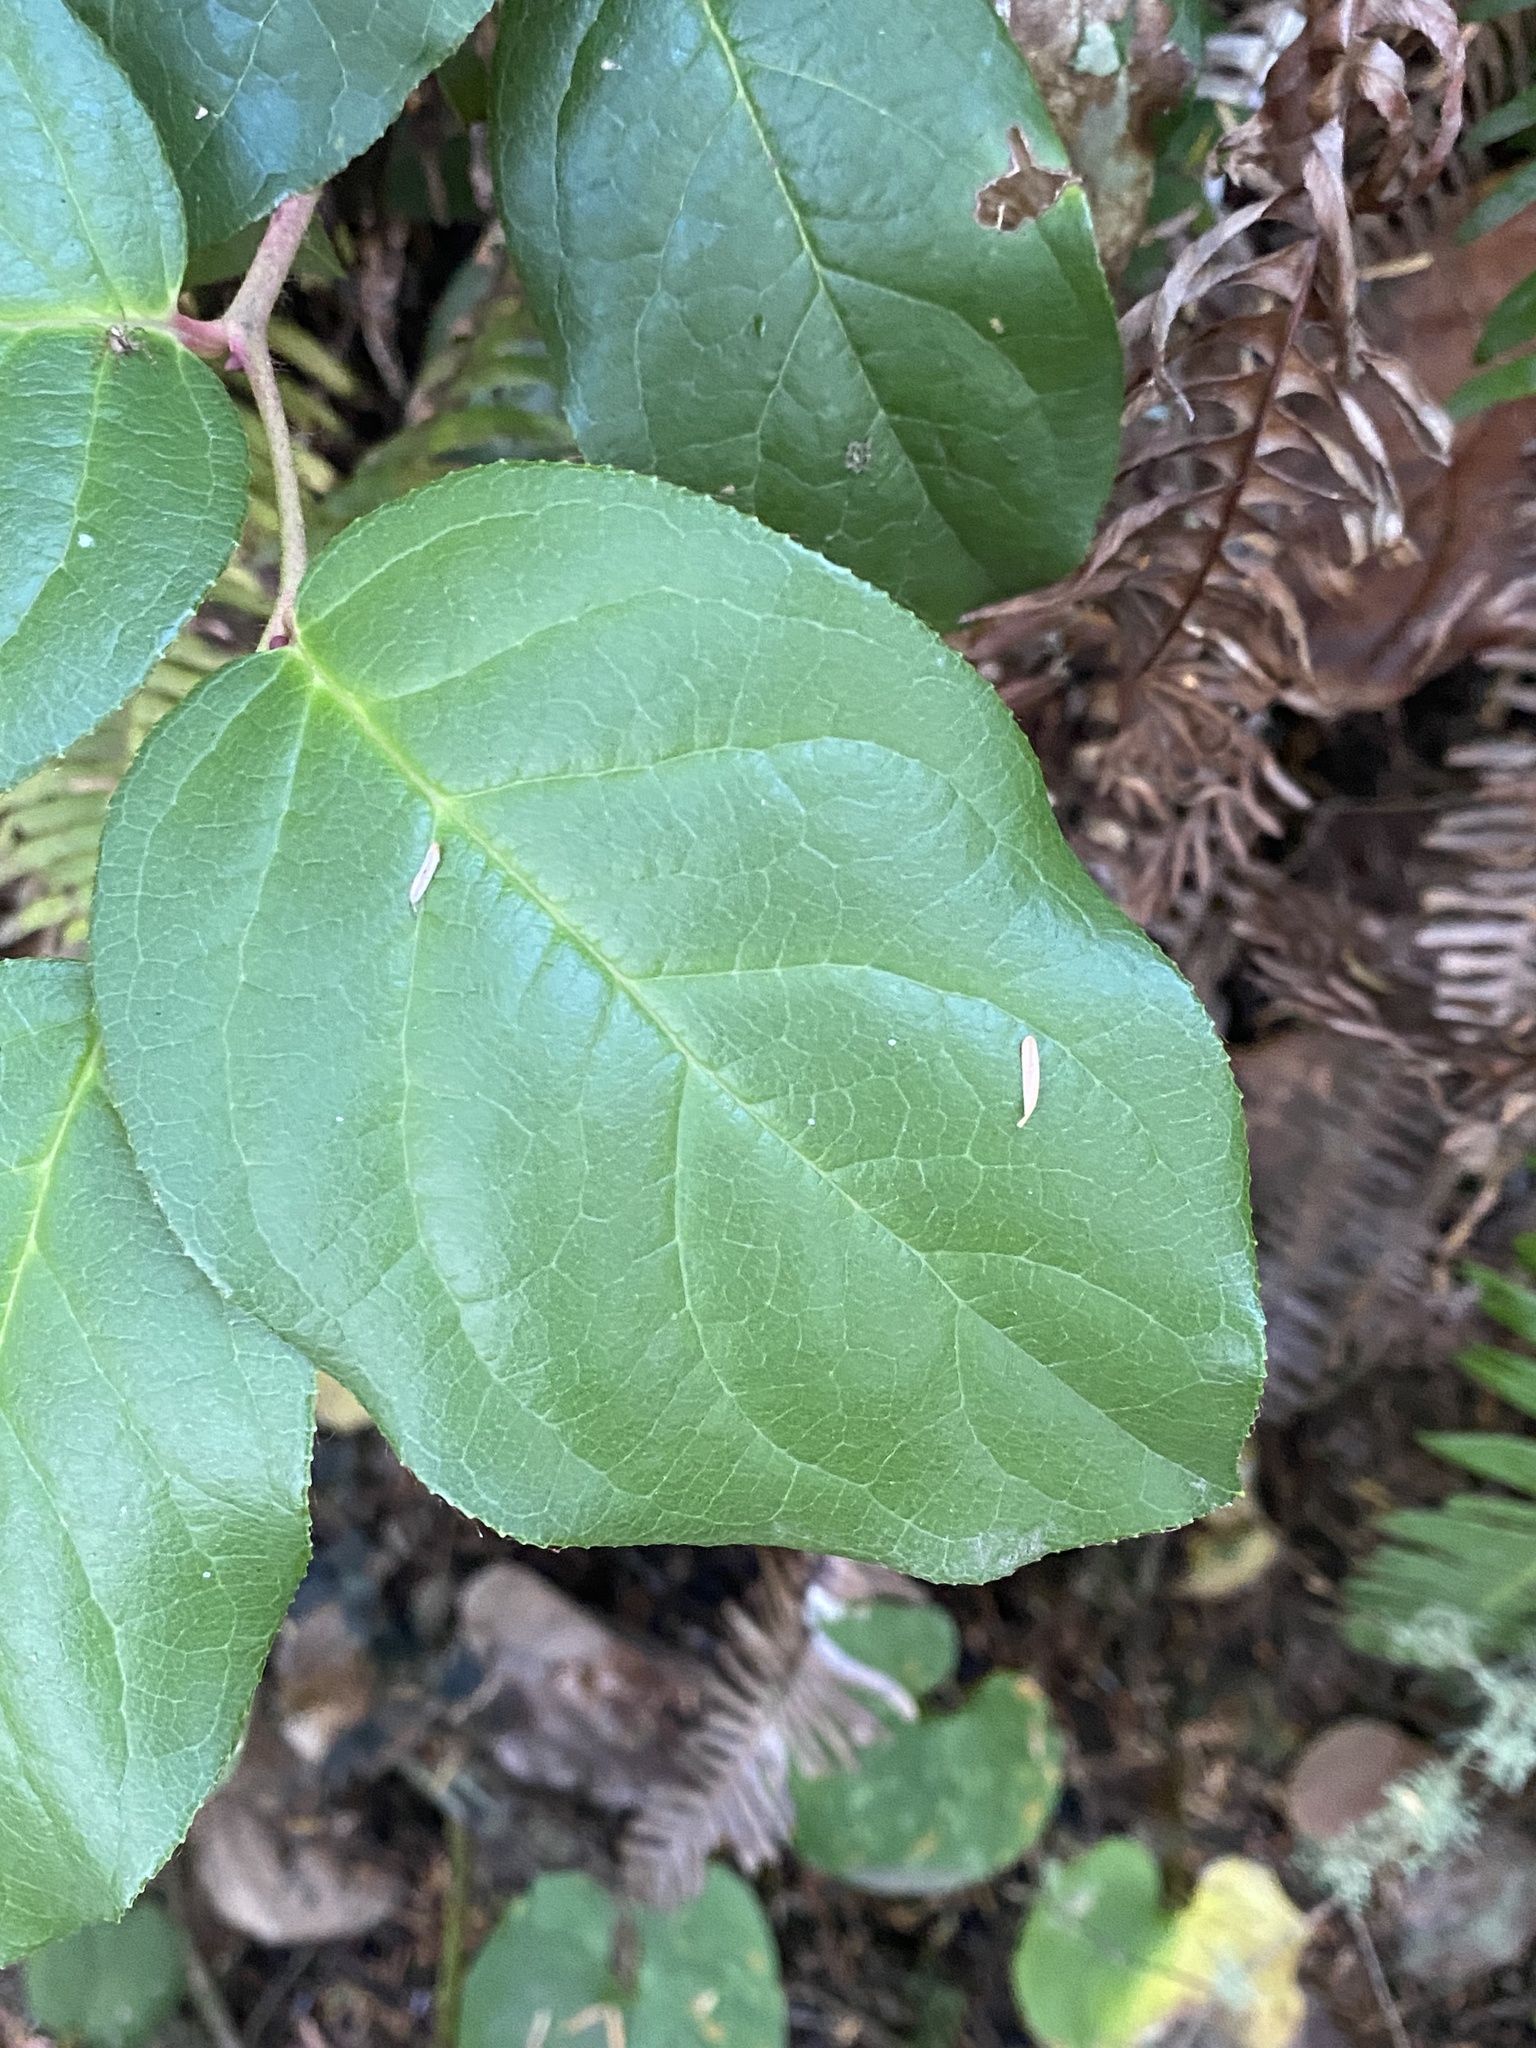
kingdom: Plantae
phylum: Tracheophyta
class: Magnoliopsida
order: Ericales
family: Ericaceae
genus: Gaultheria
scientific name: Gaultheria shallon
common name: Shallon
